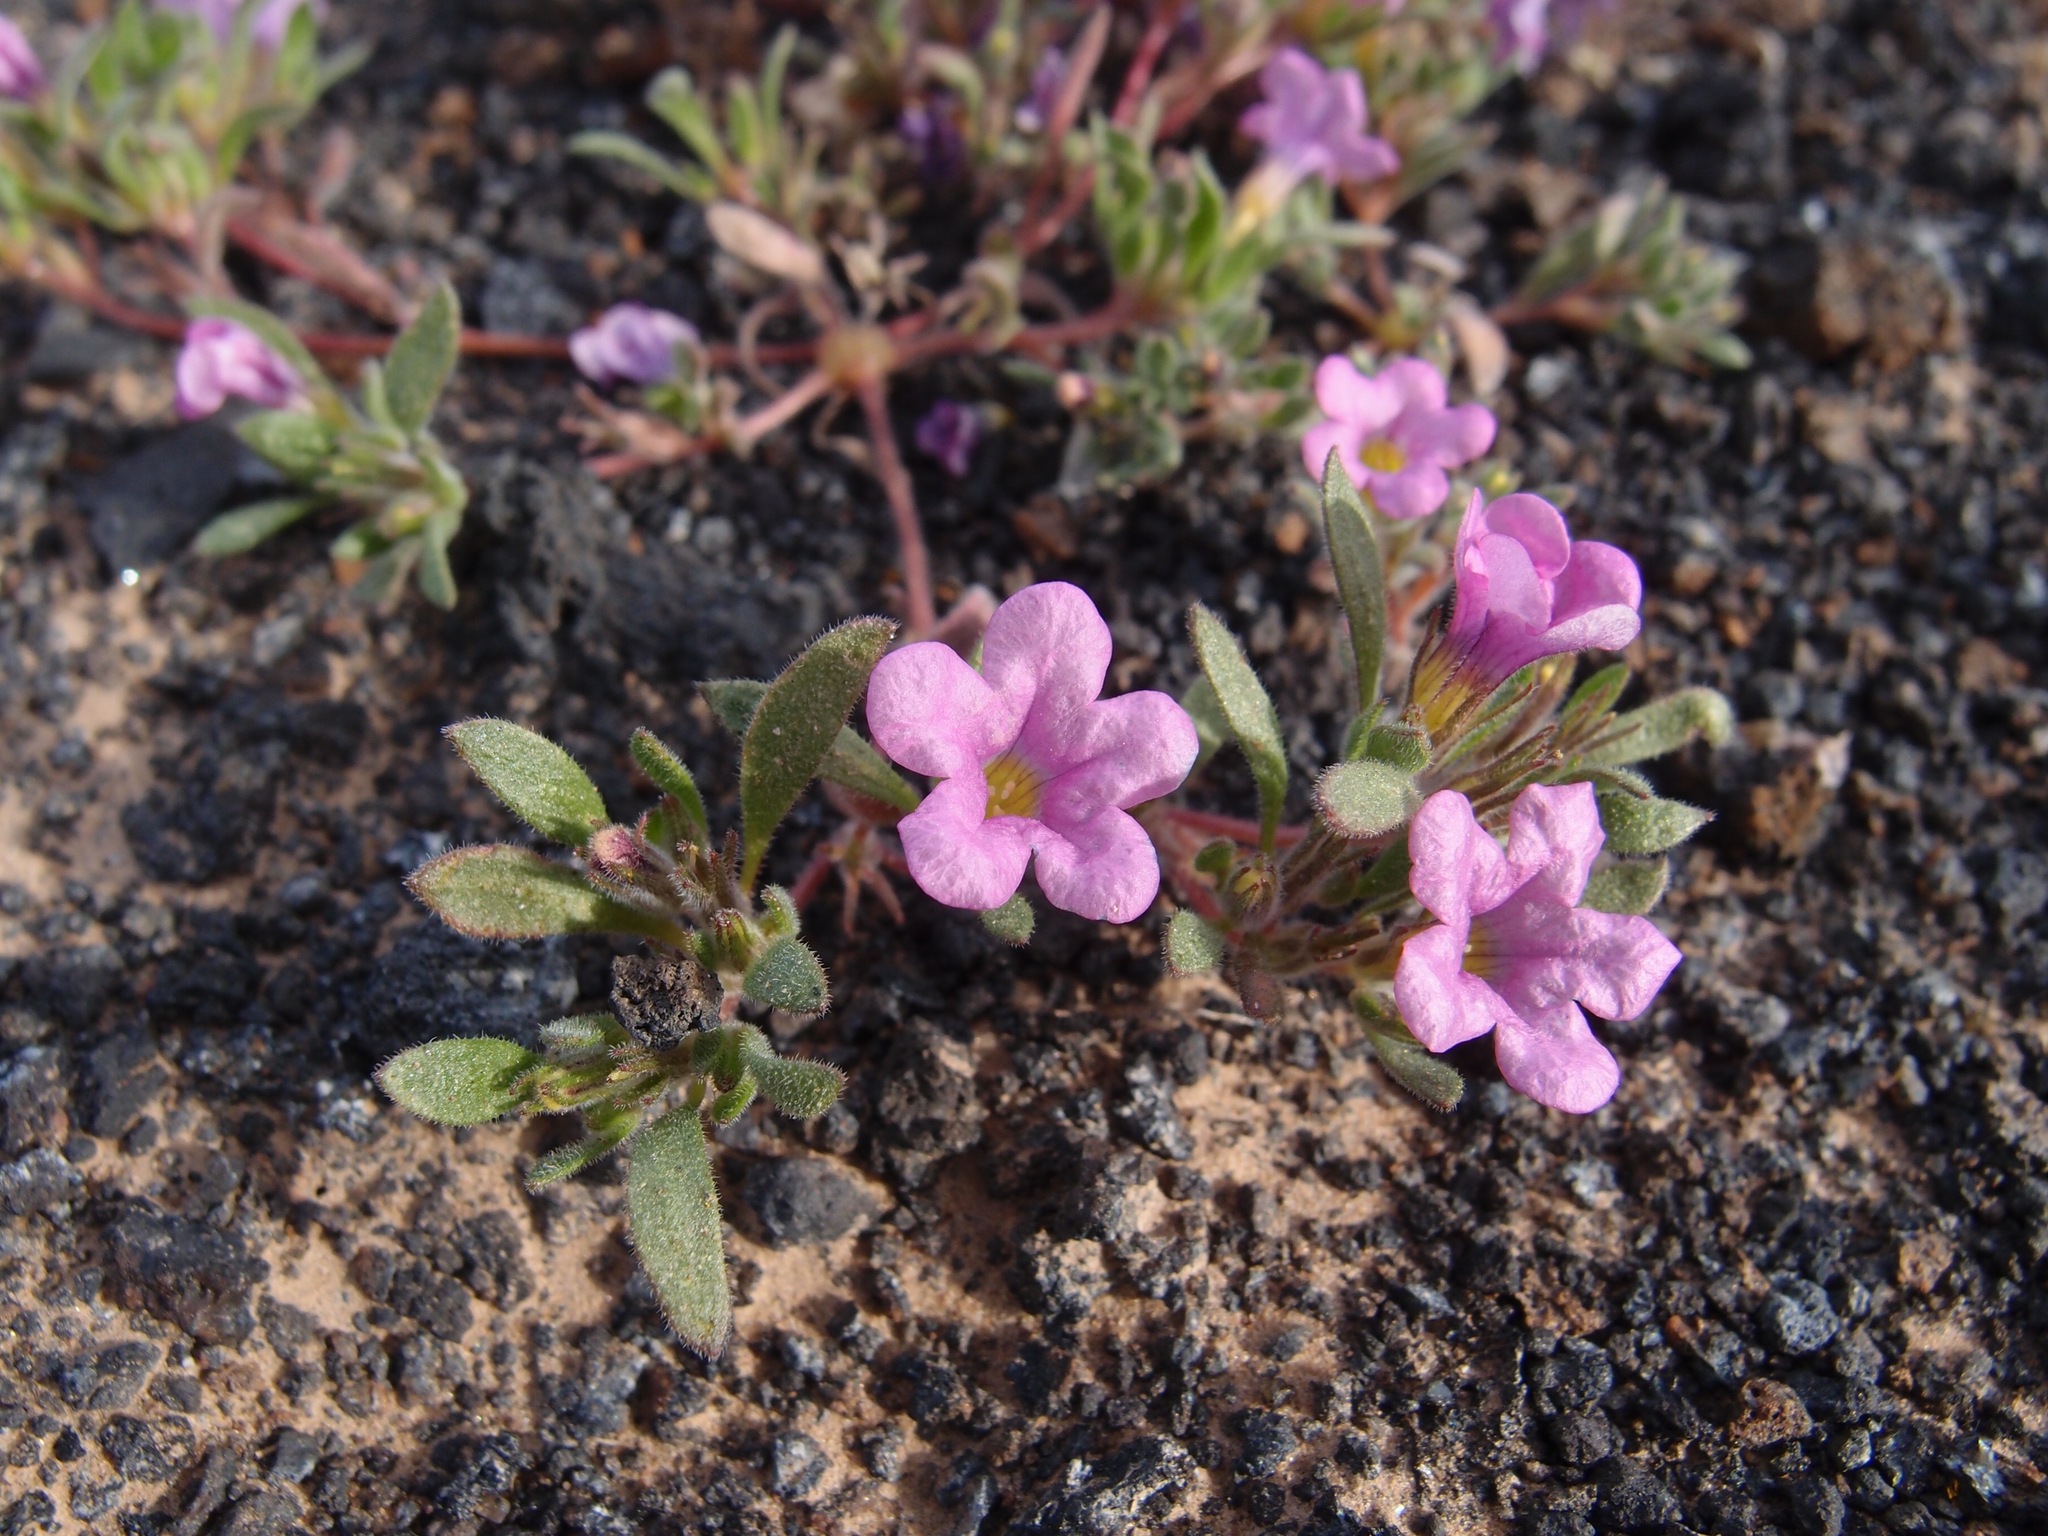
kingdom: Plantae
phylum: Tracheophyta
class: Magnoliopsida
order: Boraginales
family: Namaceae
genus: Nama
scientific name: Nama demissa
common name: Leafy nama
